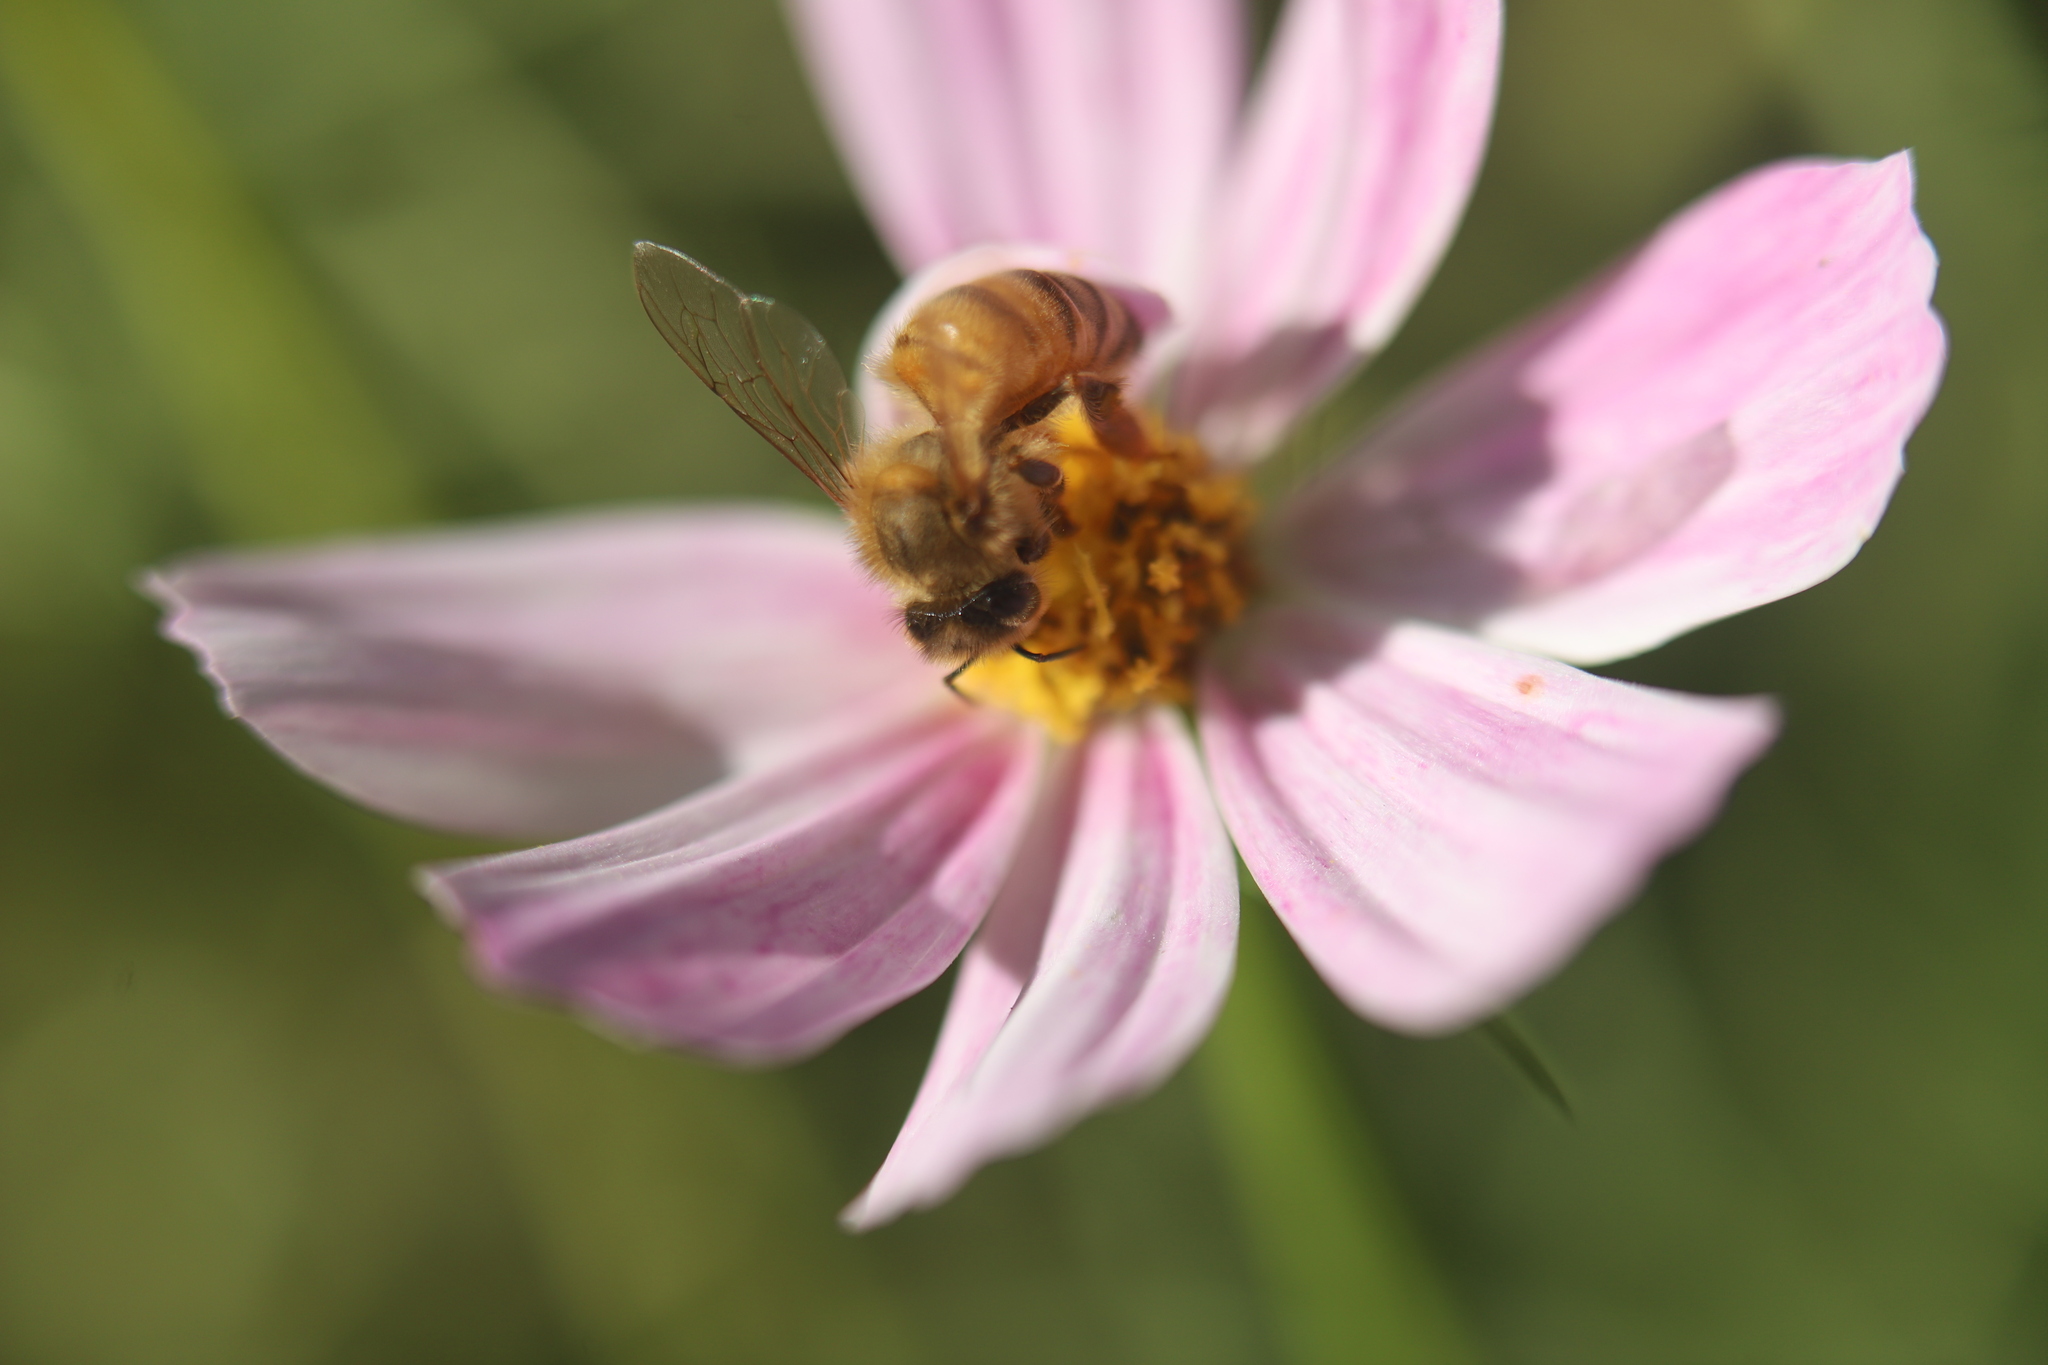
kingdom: Animalia
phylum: Arthropoda
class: Insecta
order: Hymenoptera
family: Apidae
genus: Apis
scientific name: Apis mellifera
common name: Honey bee
